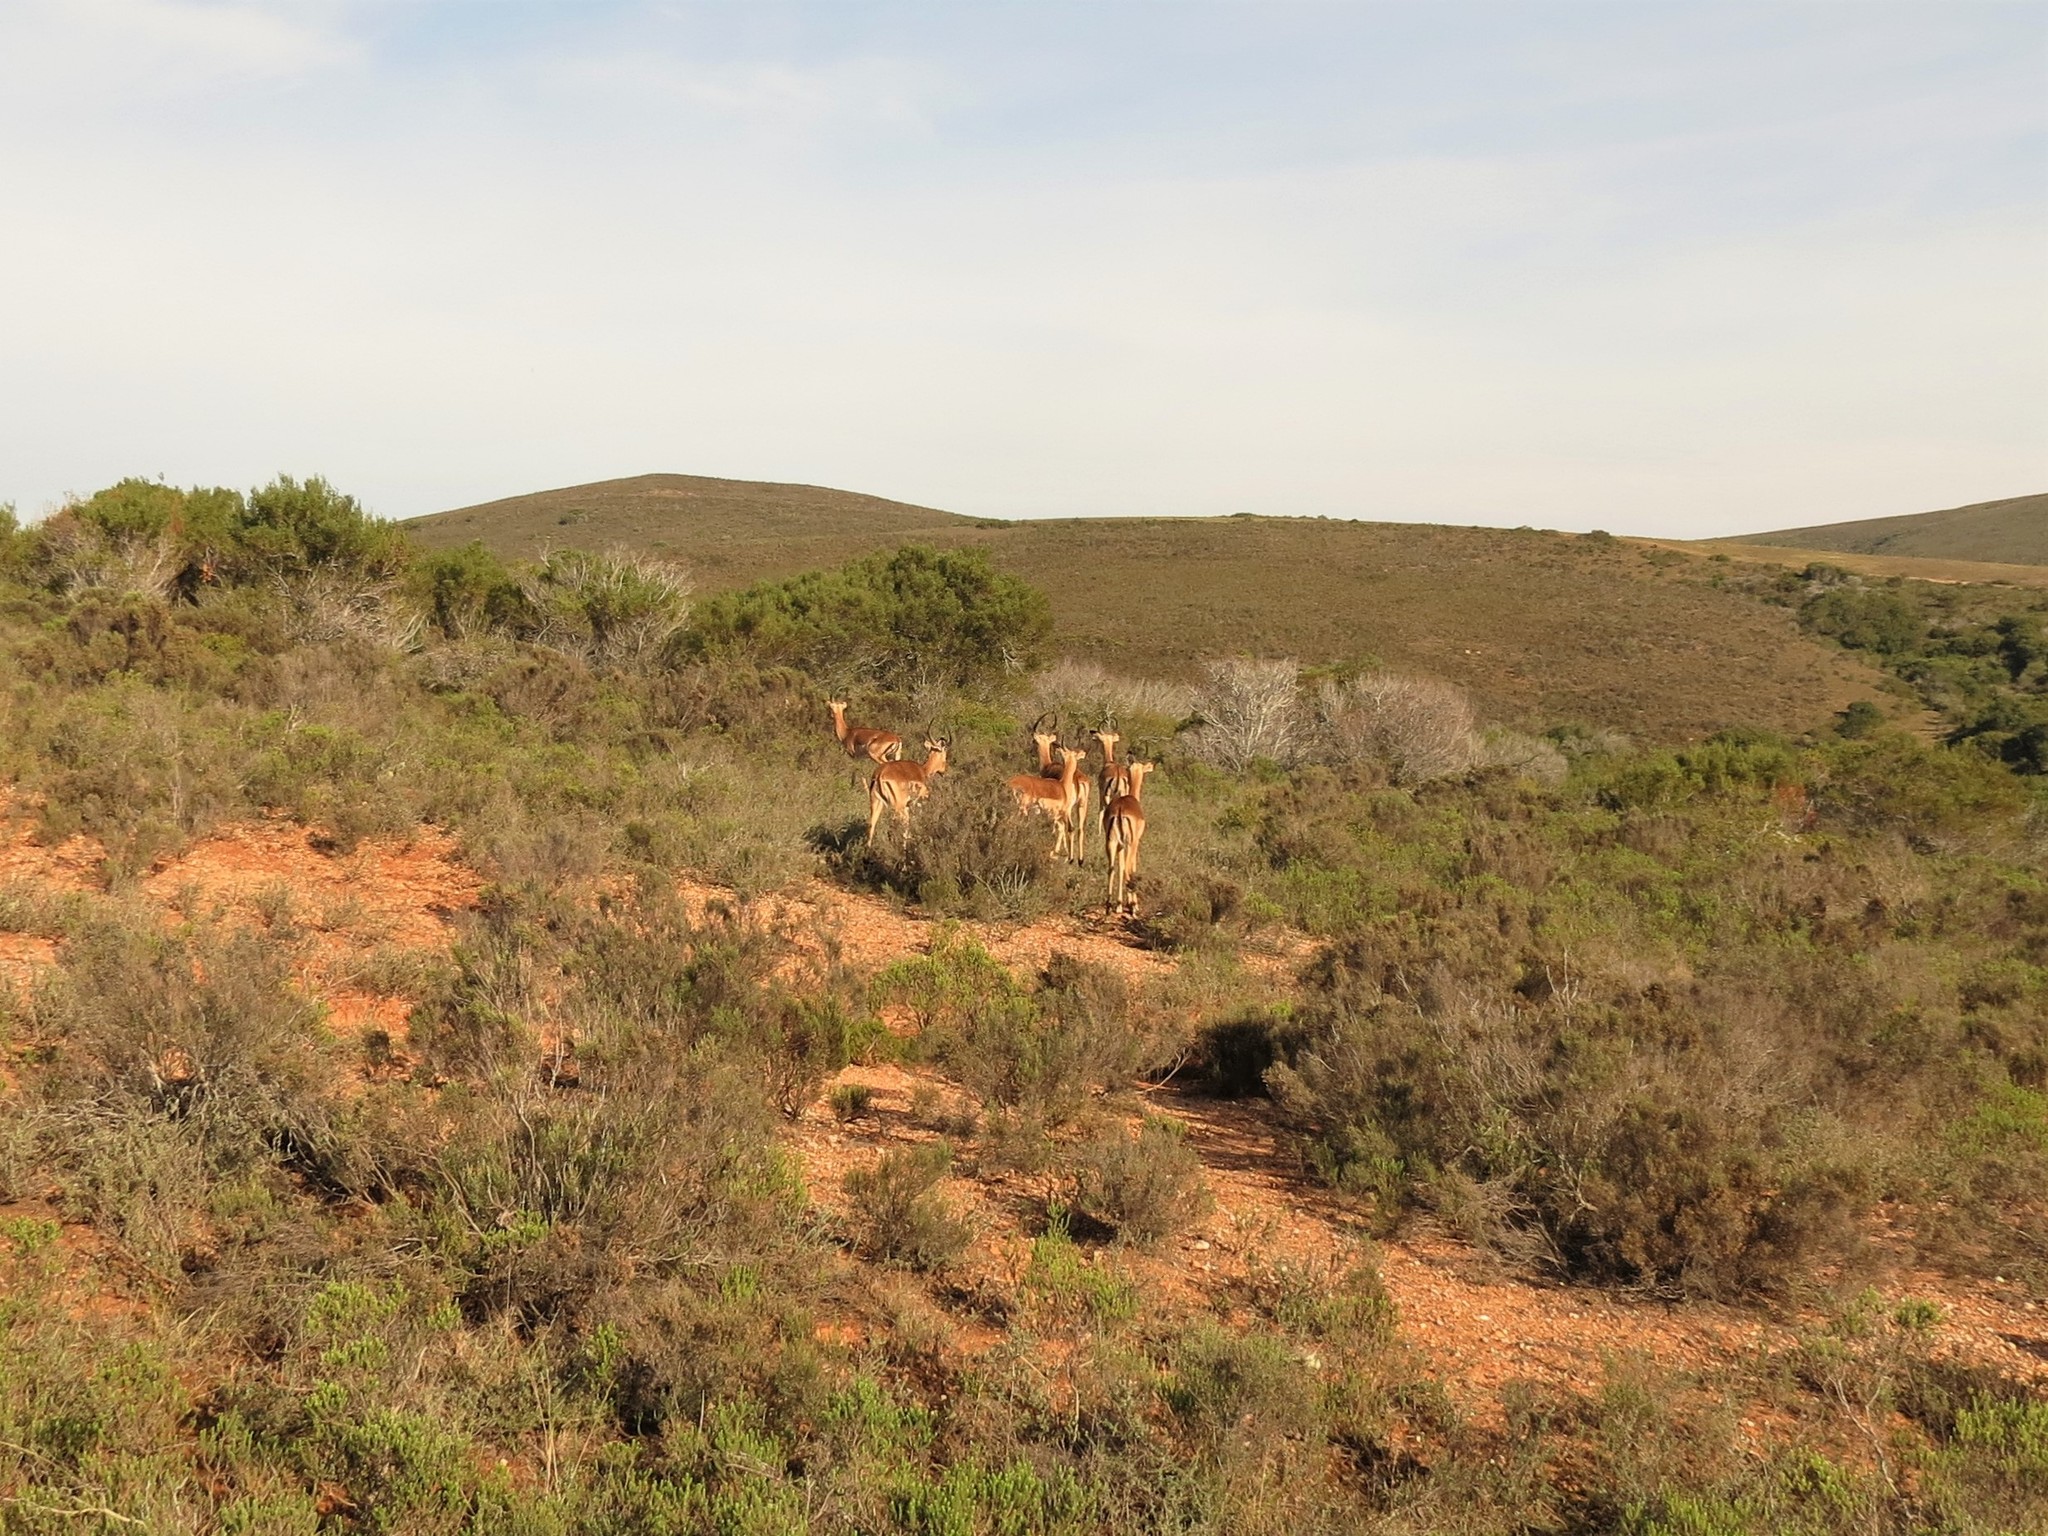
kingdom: Animalia
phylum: Chordata
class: Mammalia
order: Artiodactyla
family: Bovidae
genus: Aepyceros
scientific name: Aepyceros melampus
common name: Impala
